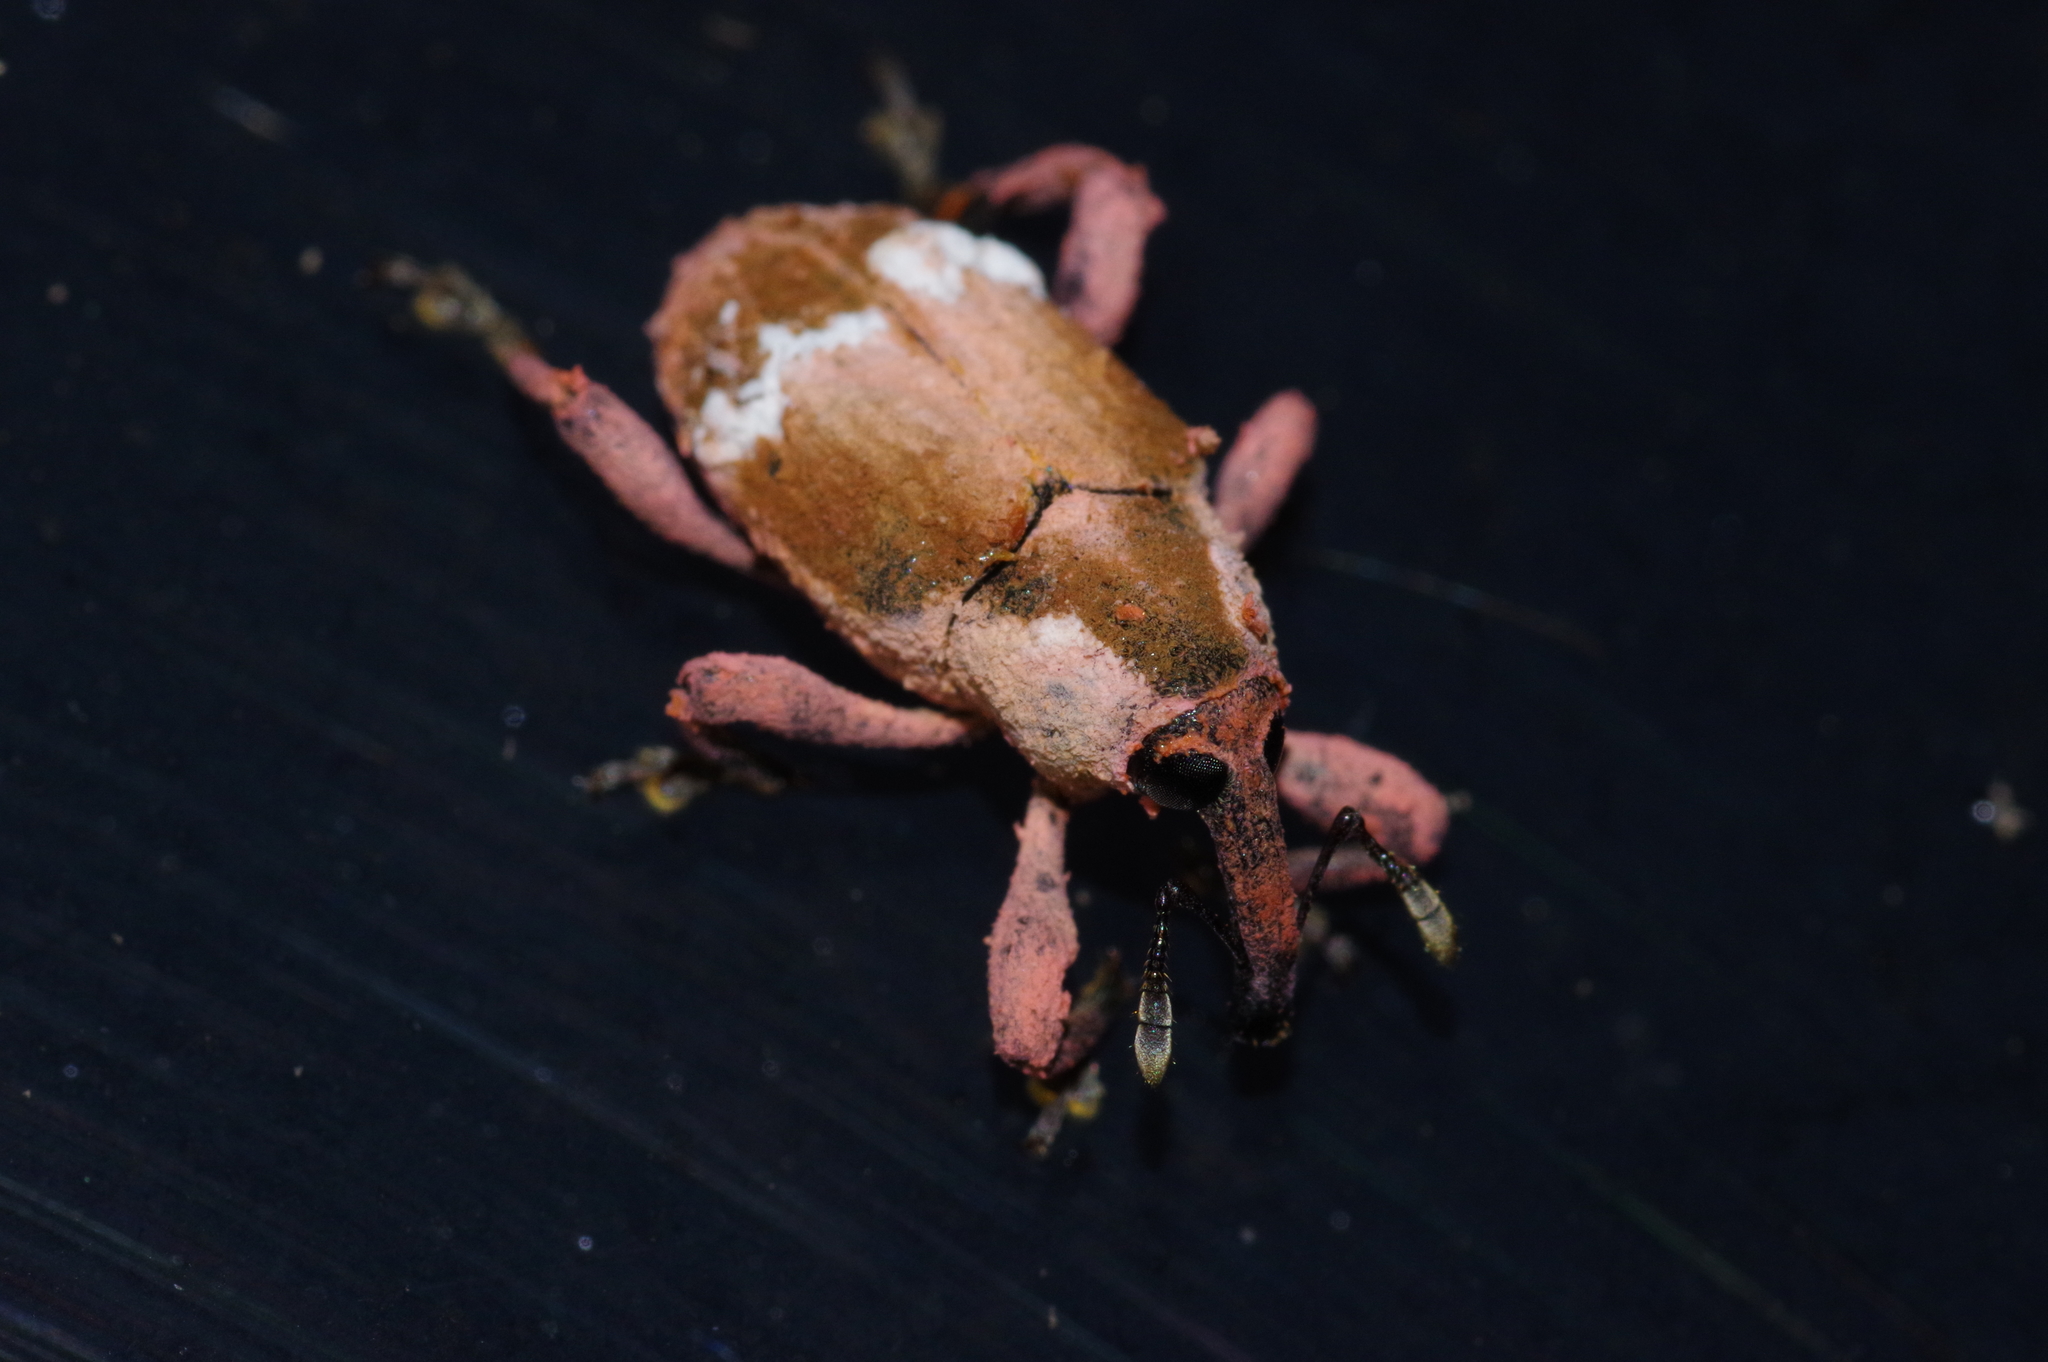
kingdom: Animalia
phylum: Arthropoda
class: Insecta
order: Coleoptera
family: Curculionidae
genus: Aclees
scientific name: Aclees hirayamai
